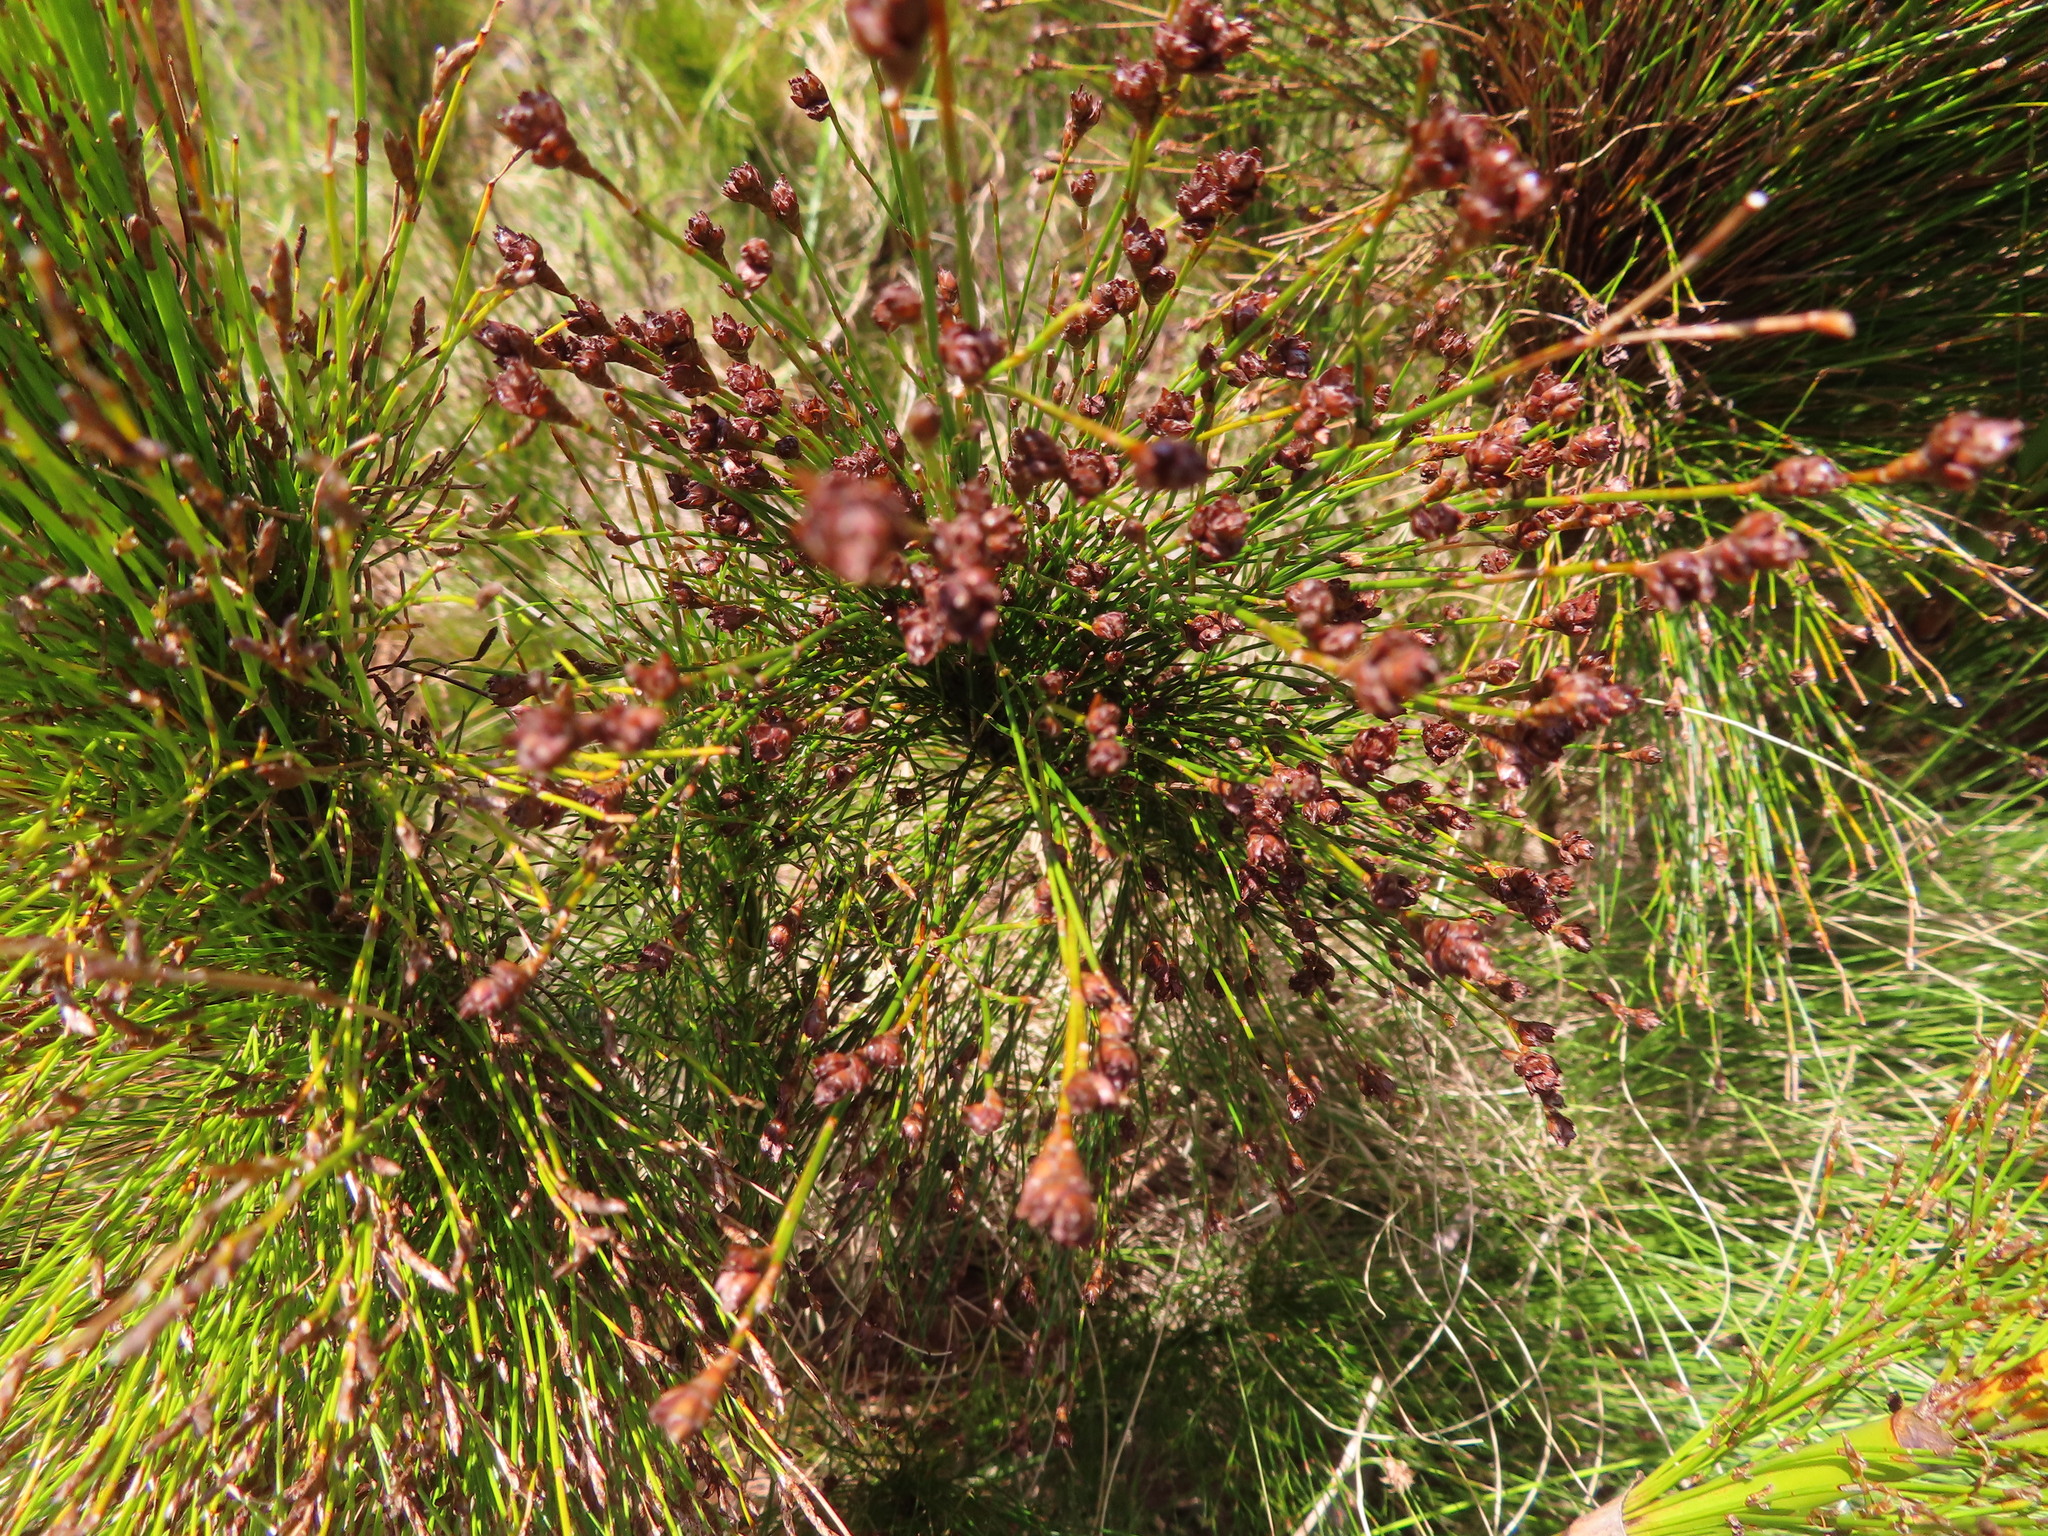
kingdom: Plantae
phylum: Tracheophyta
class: Liliopsida
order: Poales
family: Restionaceae
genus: Rhodocoma
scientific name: Rhodocoma capensis
